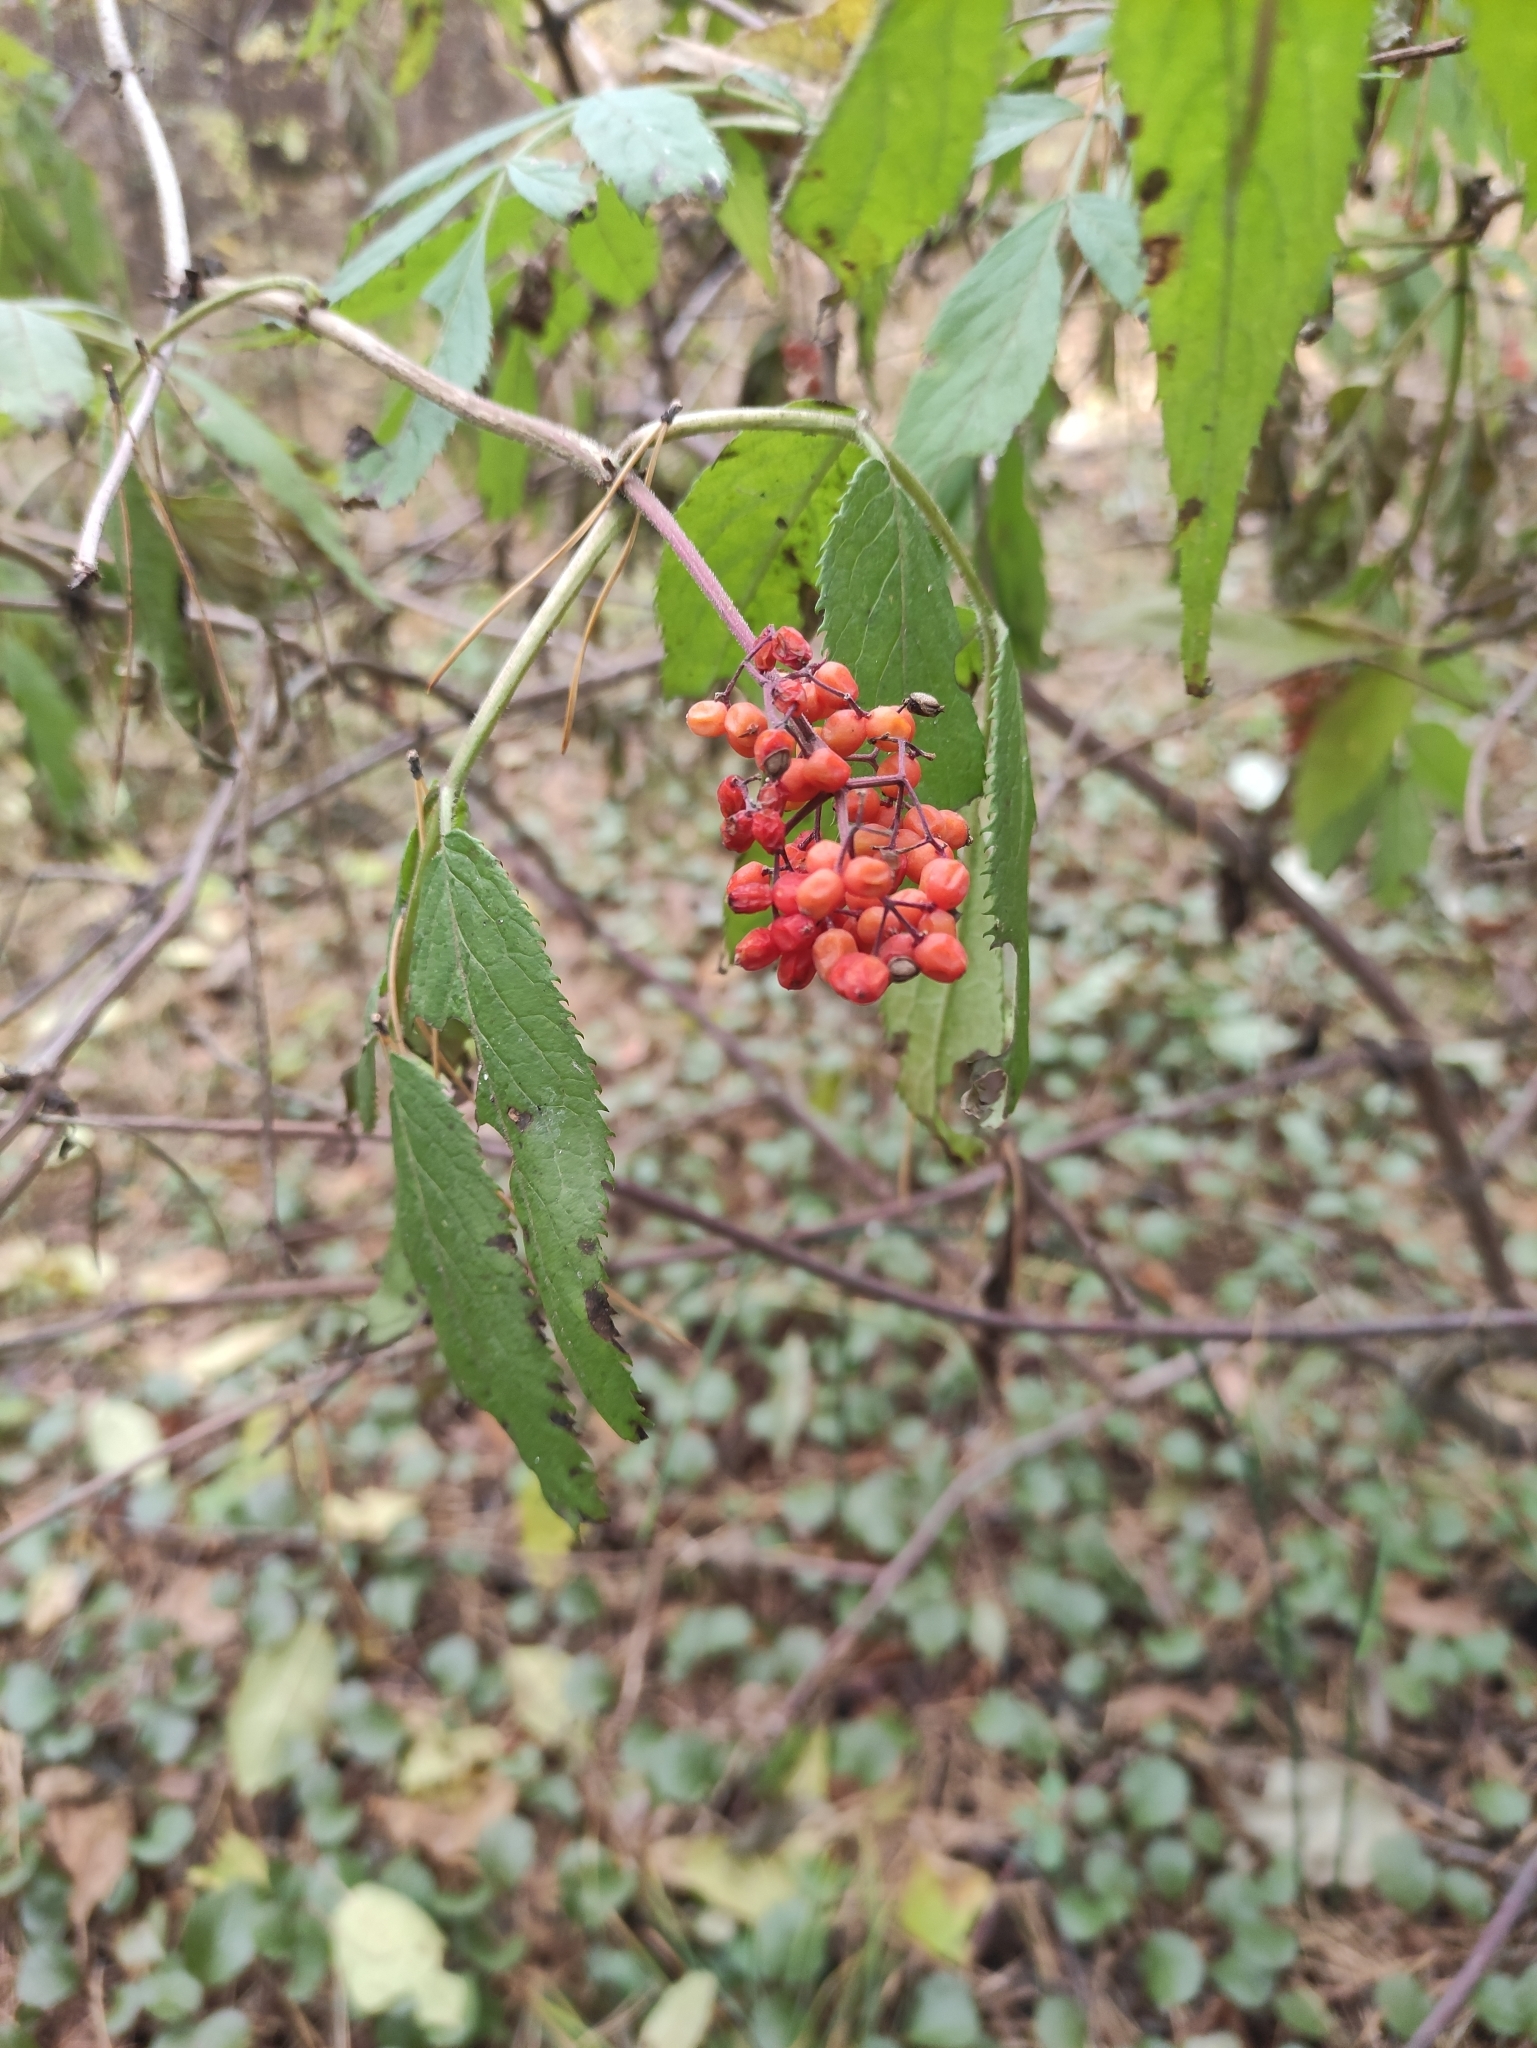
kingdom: Plantae
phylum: Tracheophyta
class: Magnoliopsida
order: Dipsacales
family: Viburnaceae
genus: Sambucus
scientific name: Sambucus sibirica
